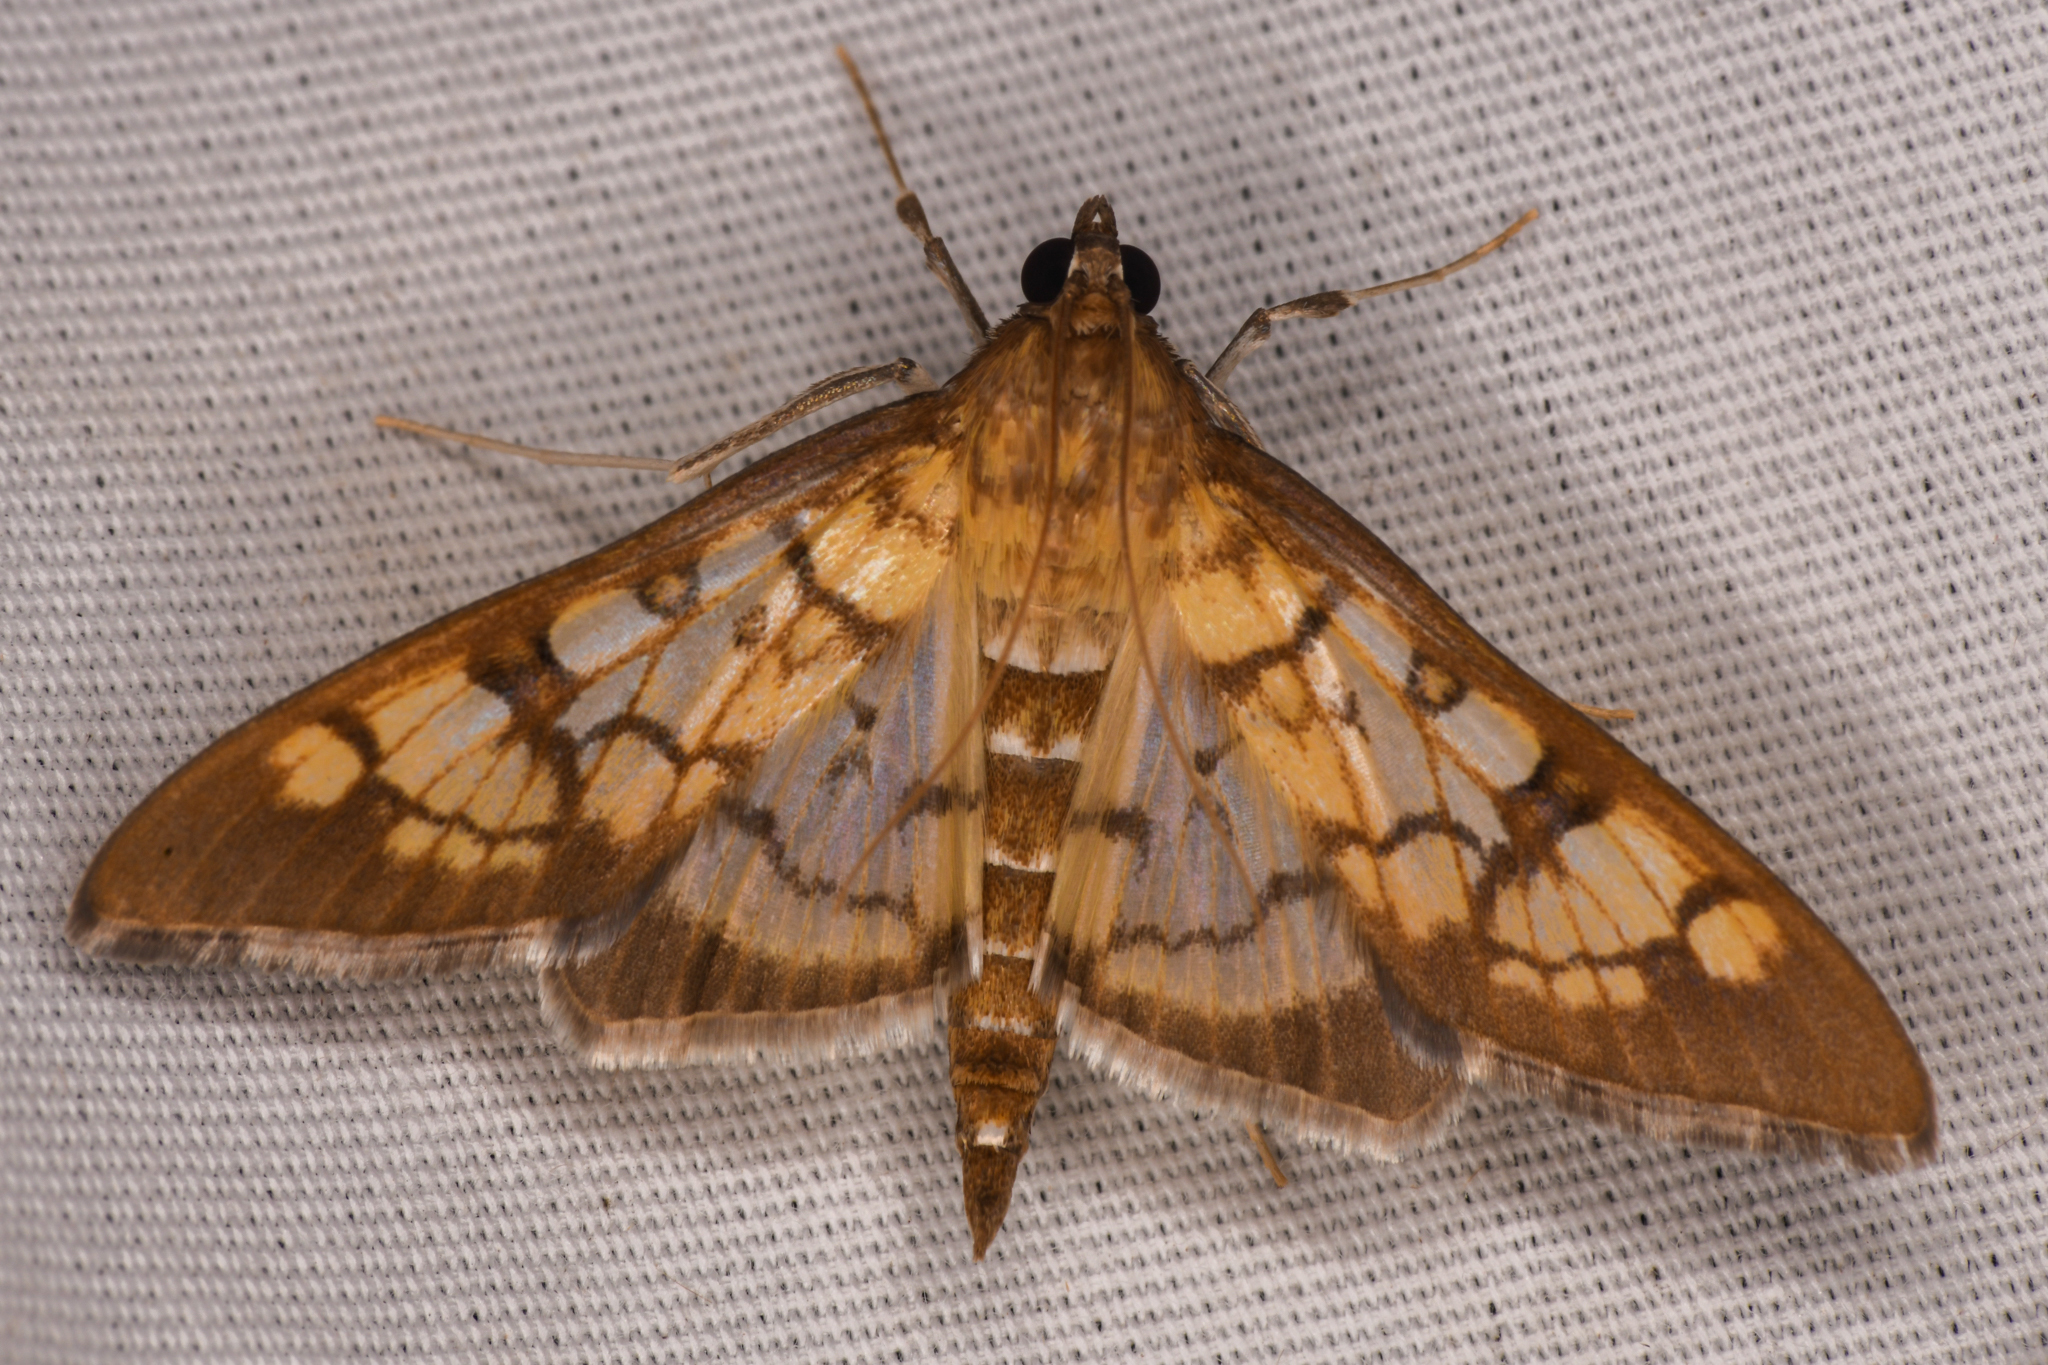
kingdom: Animalia
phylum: Arthropoda
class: Insecta
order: Lepidoptera
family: Crambidae
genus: Mimorista
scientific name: Mimorista subcostalis
